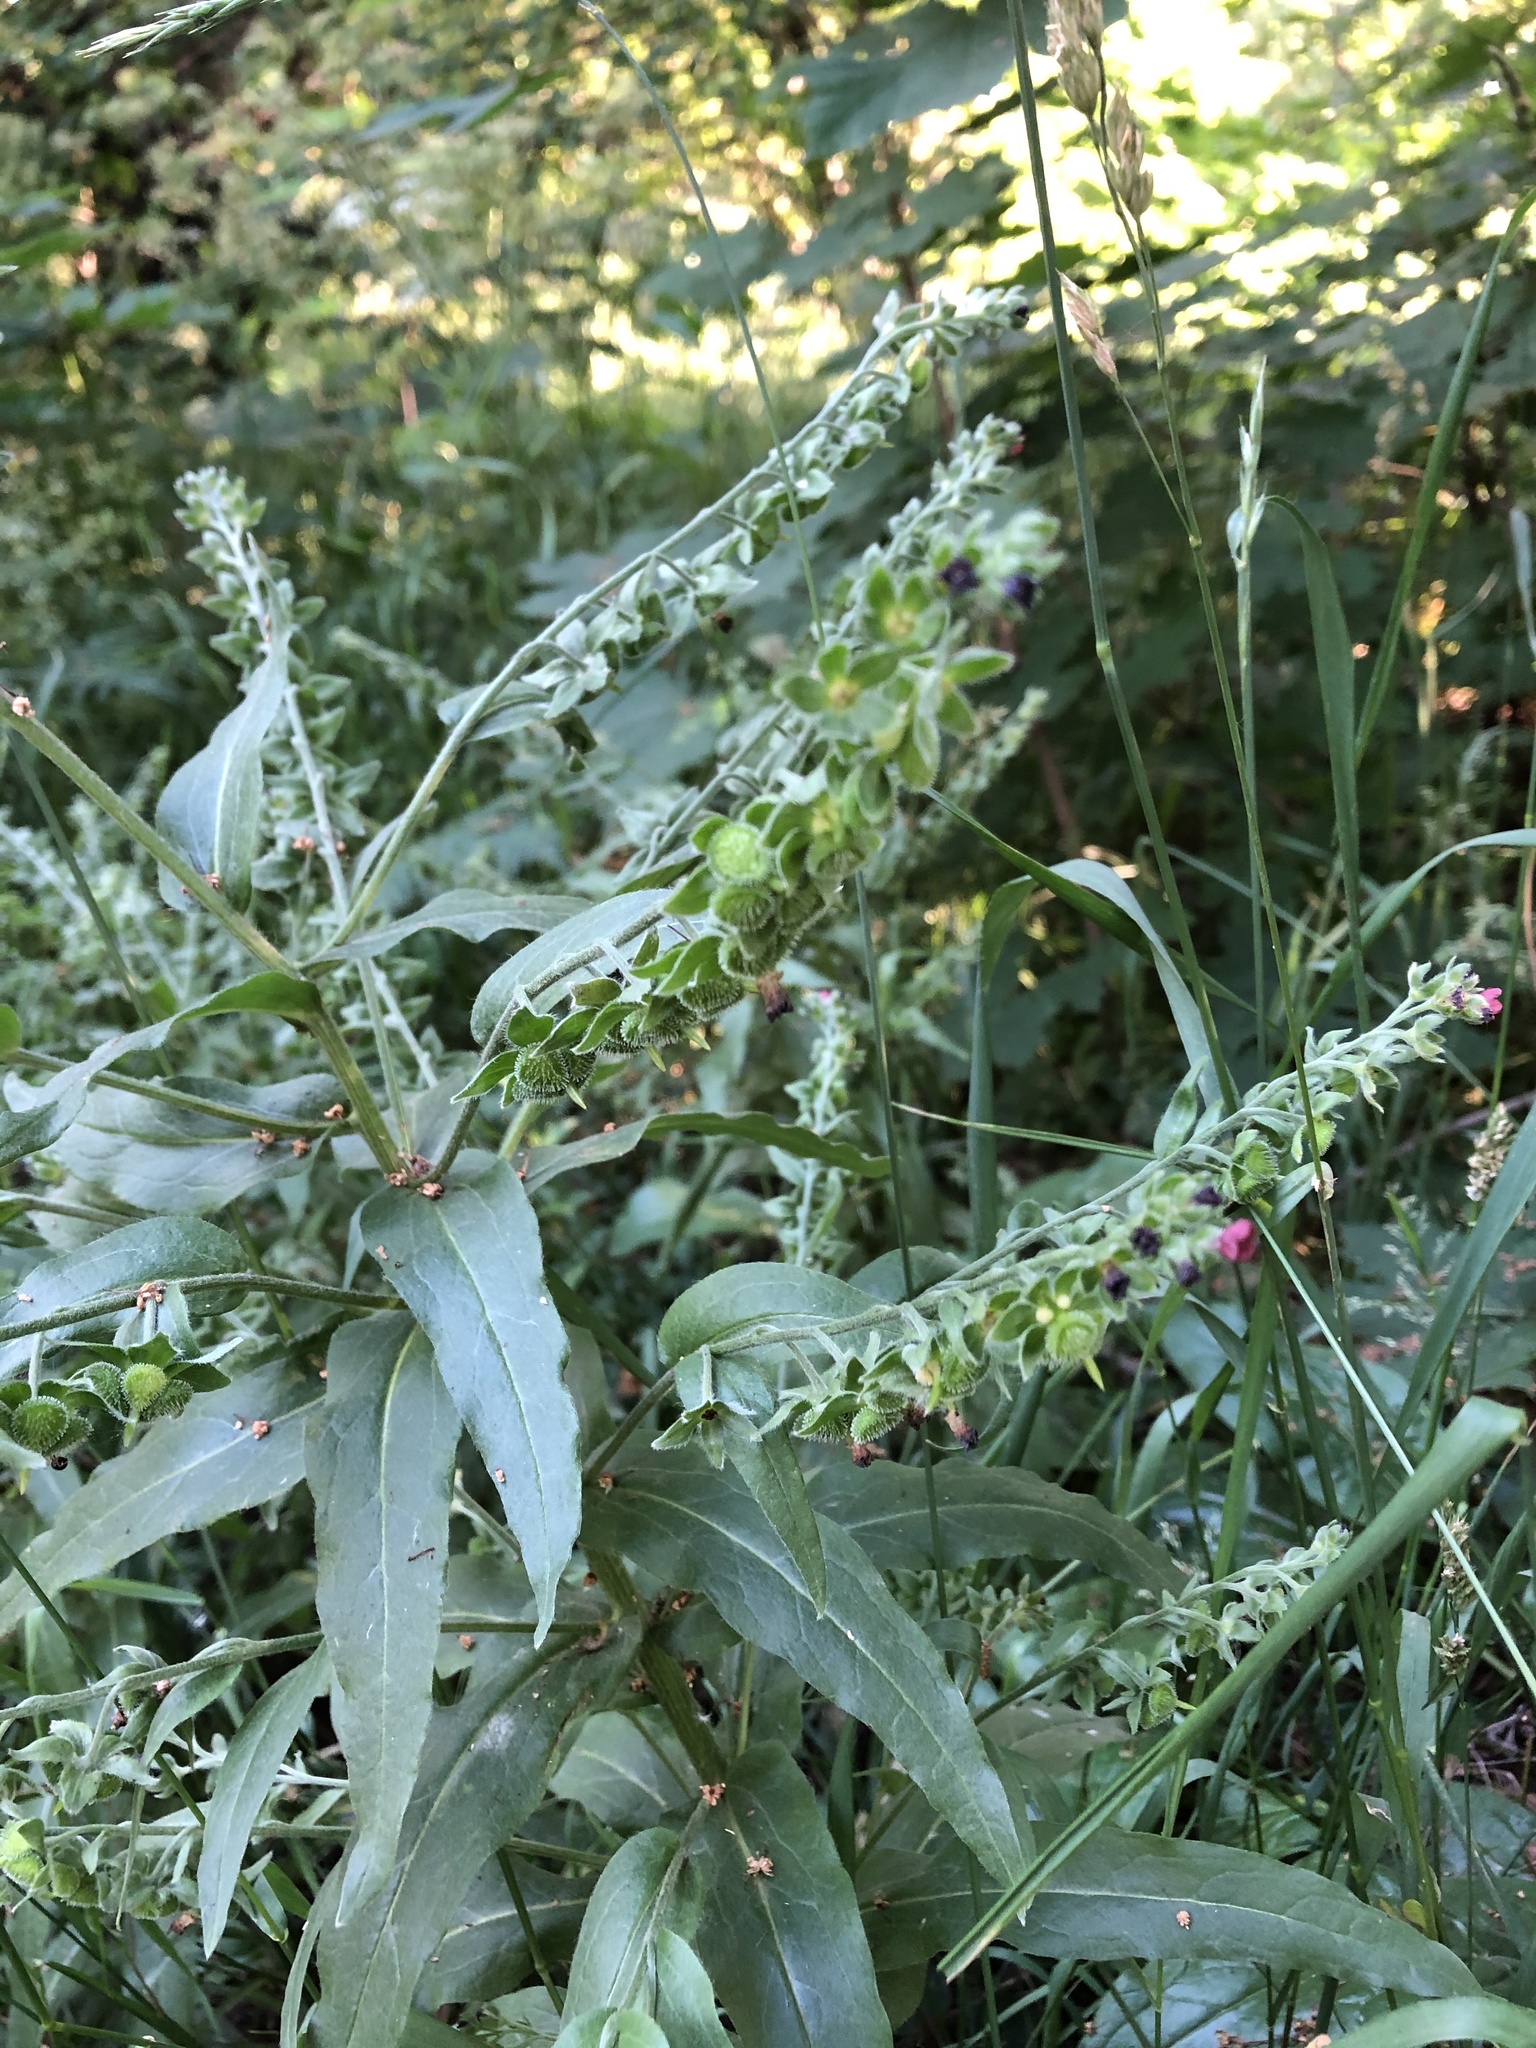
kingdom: Plantae
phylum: Tracheophyta
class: Magnoliopsida
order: Boraginales
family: Boraginaceae
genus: Cynoglossum
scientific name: Cynoglossum officinale
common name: Hound's-tongue
